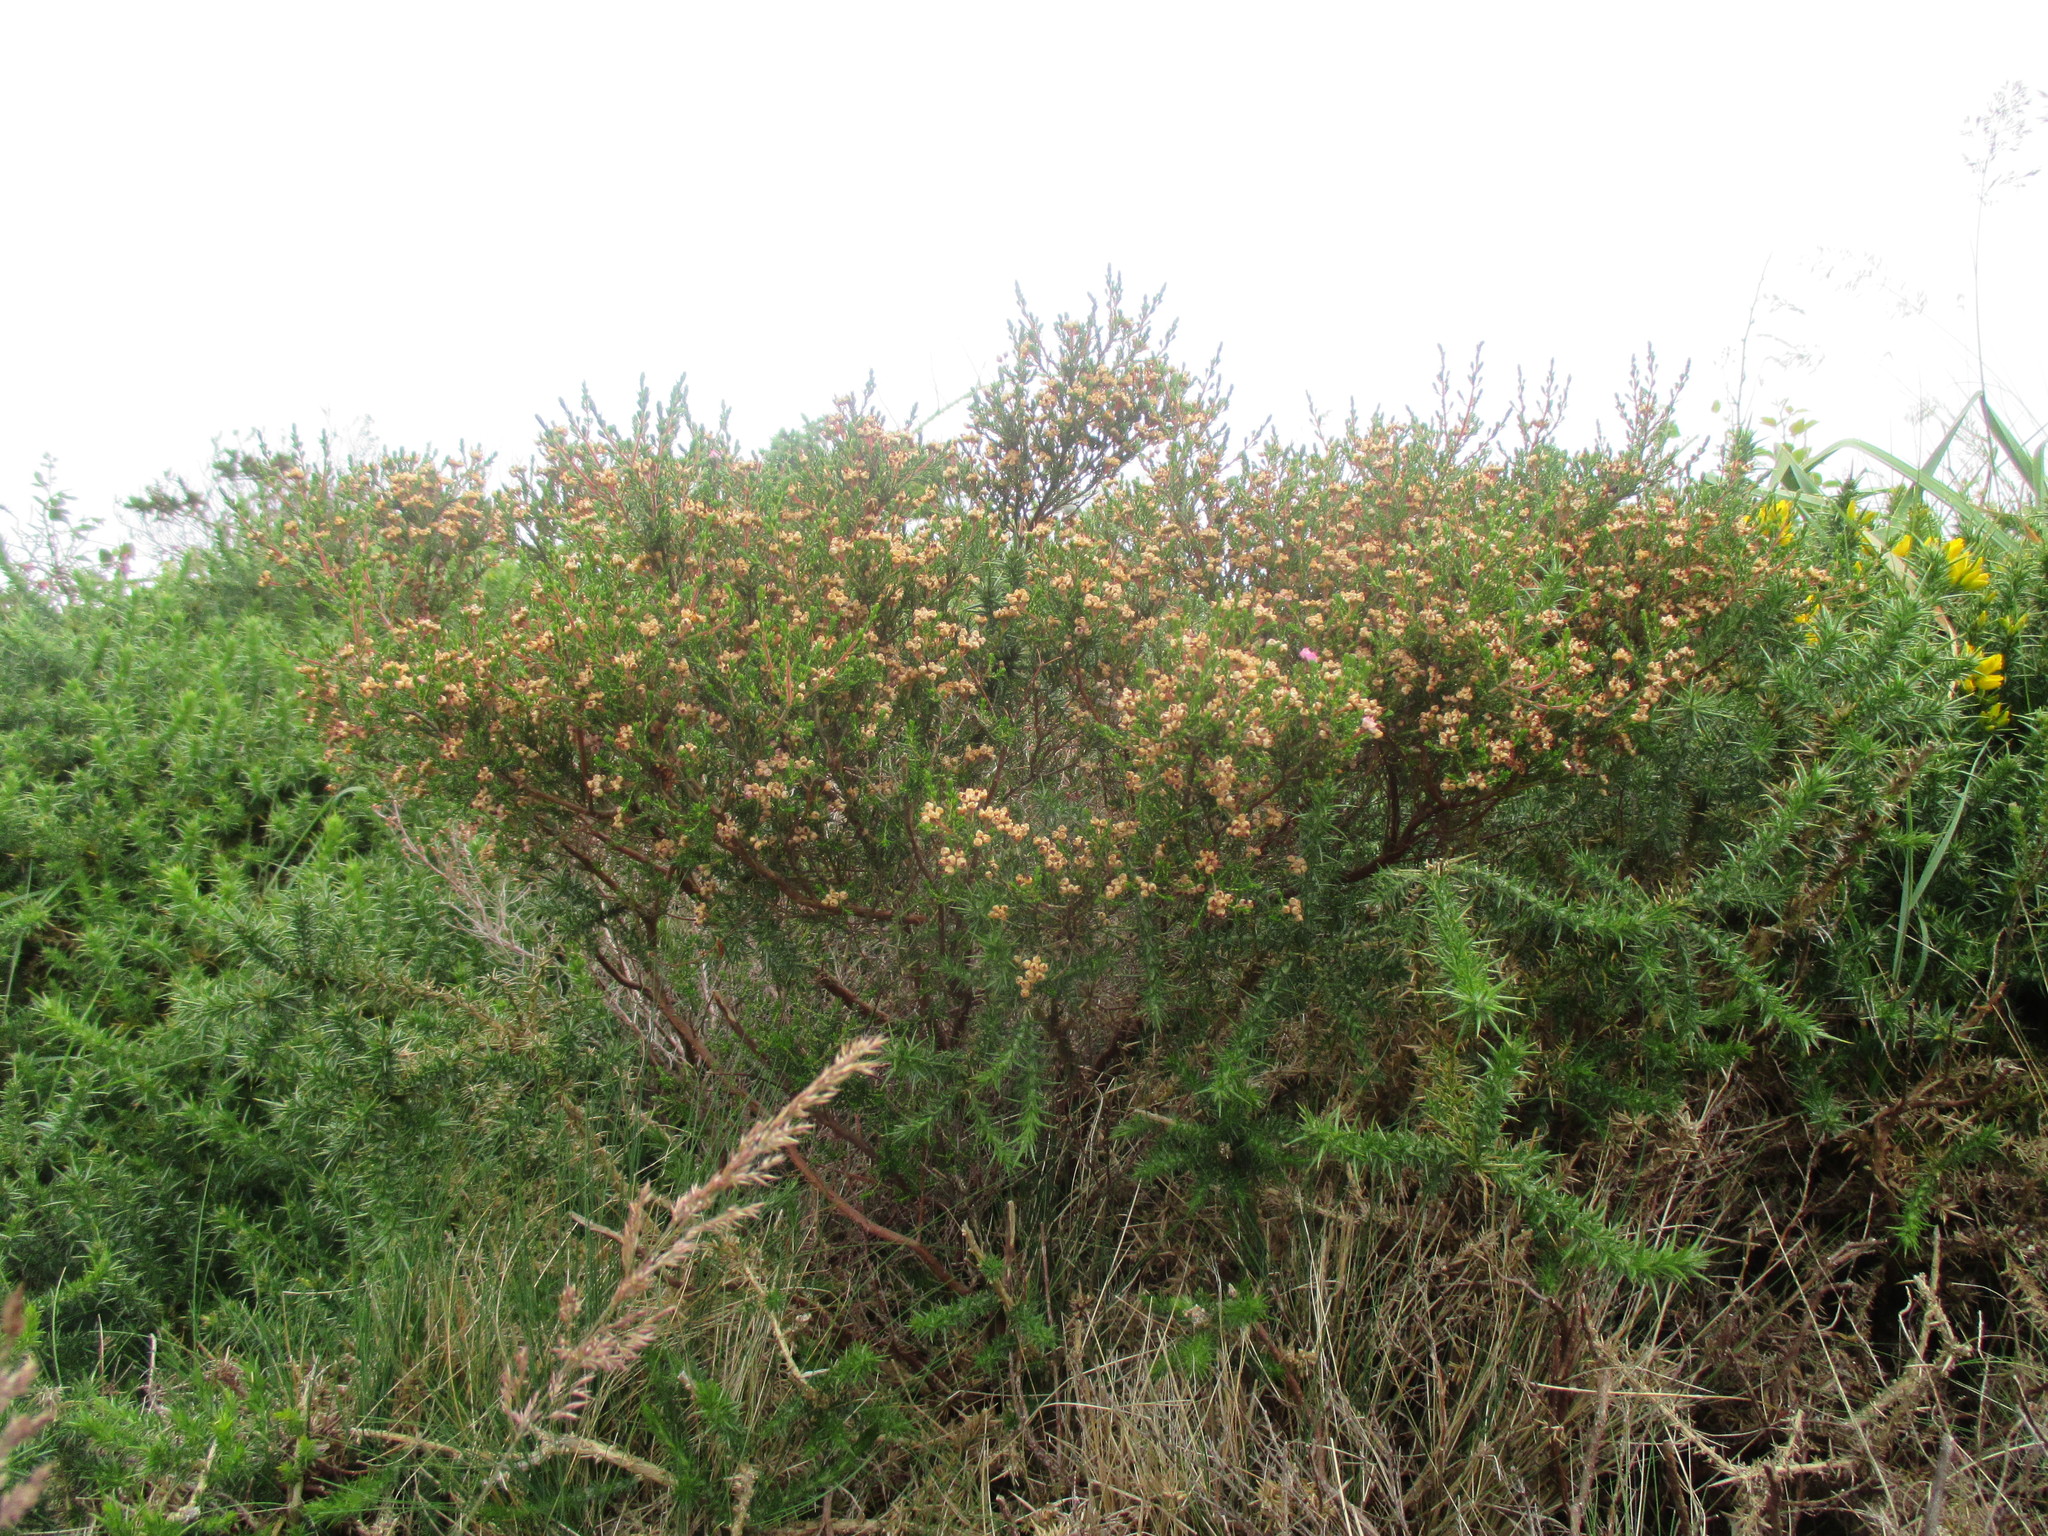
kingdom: Plantae
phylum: Tracheophyta
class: Magnoliopsida
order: Ericales
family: Ericaceae
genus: Erica
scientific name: Erica umbellata
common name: Dwarf spanish heath
